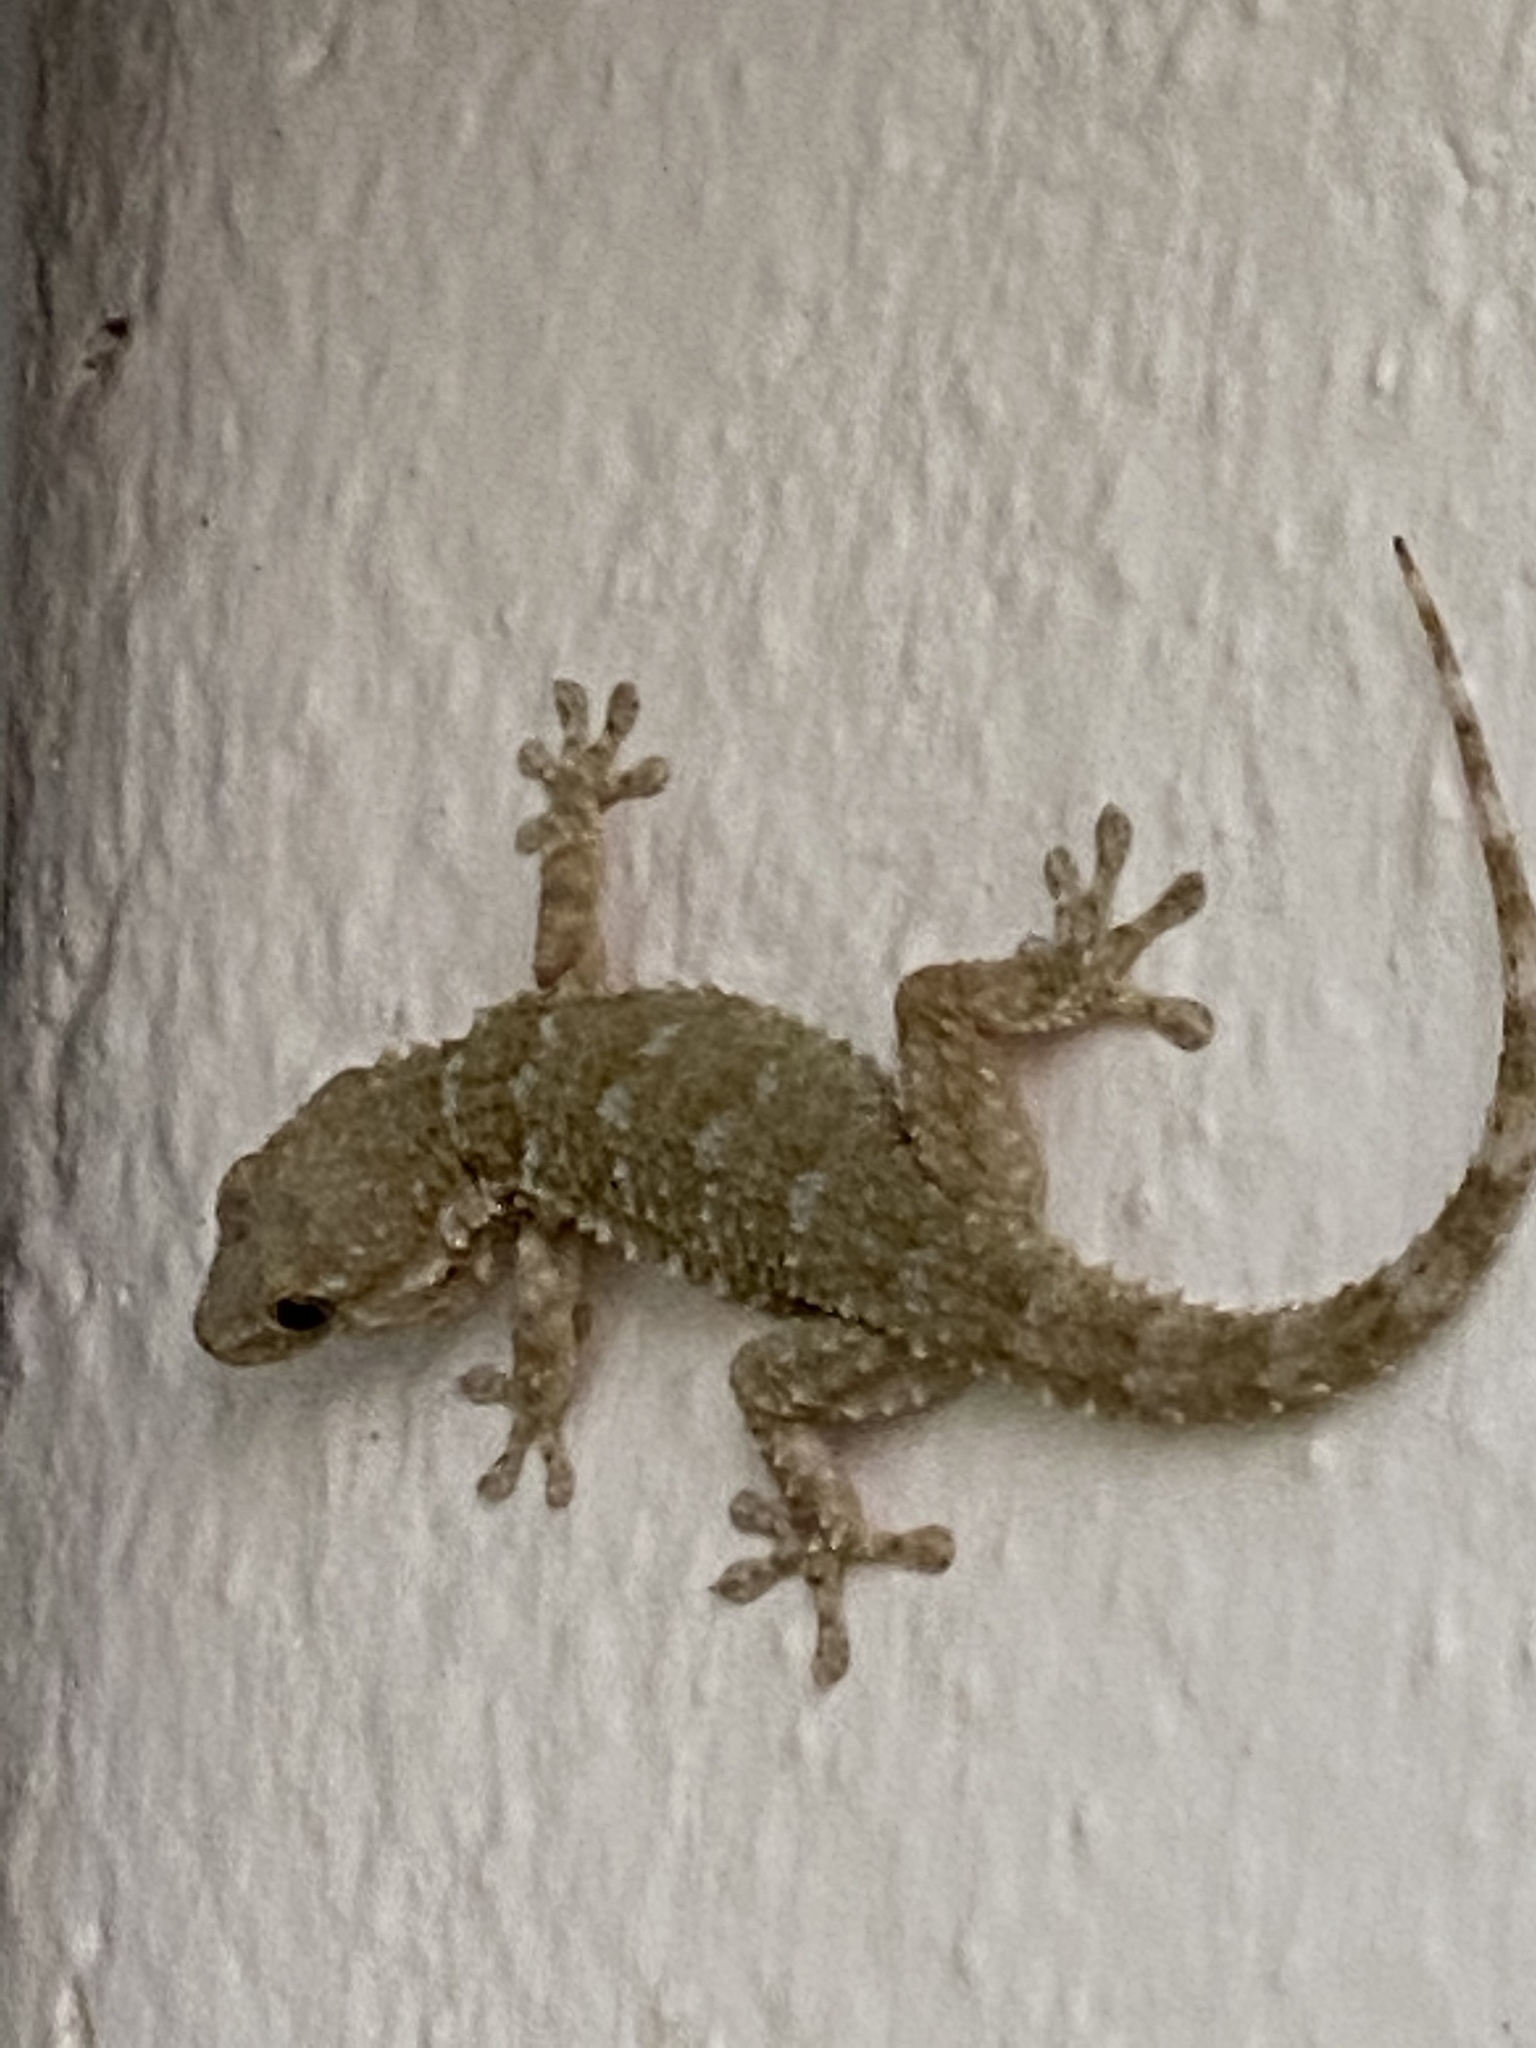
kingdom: Animalia
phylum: Chordata
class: Squamata
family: Phyllodactylidae
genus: Tarentola
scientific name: Tarentola mauritanica
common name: Moorish gecko
